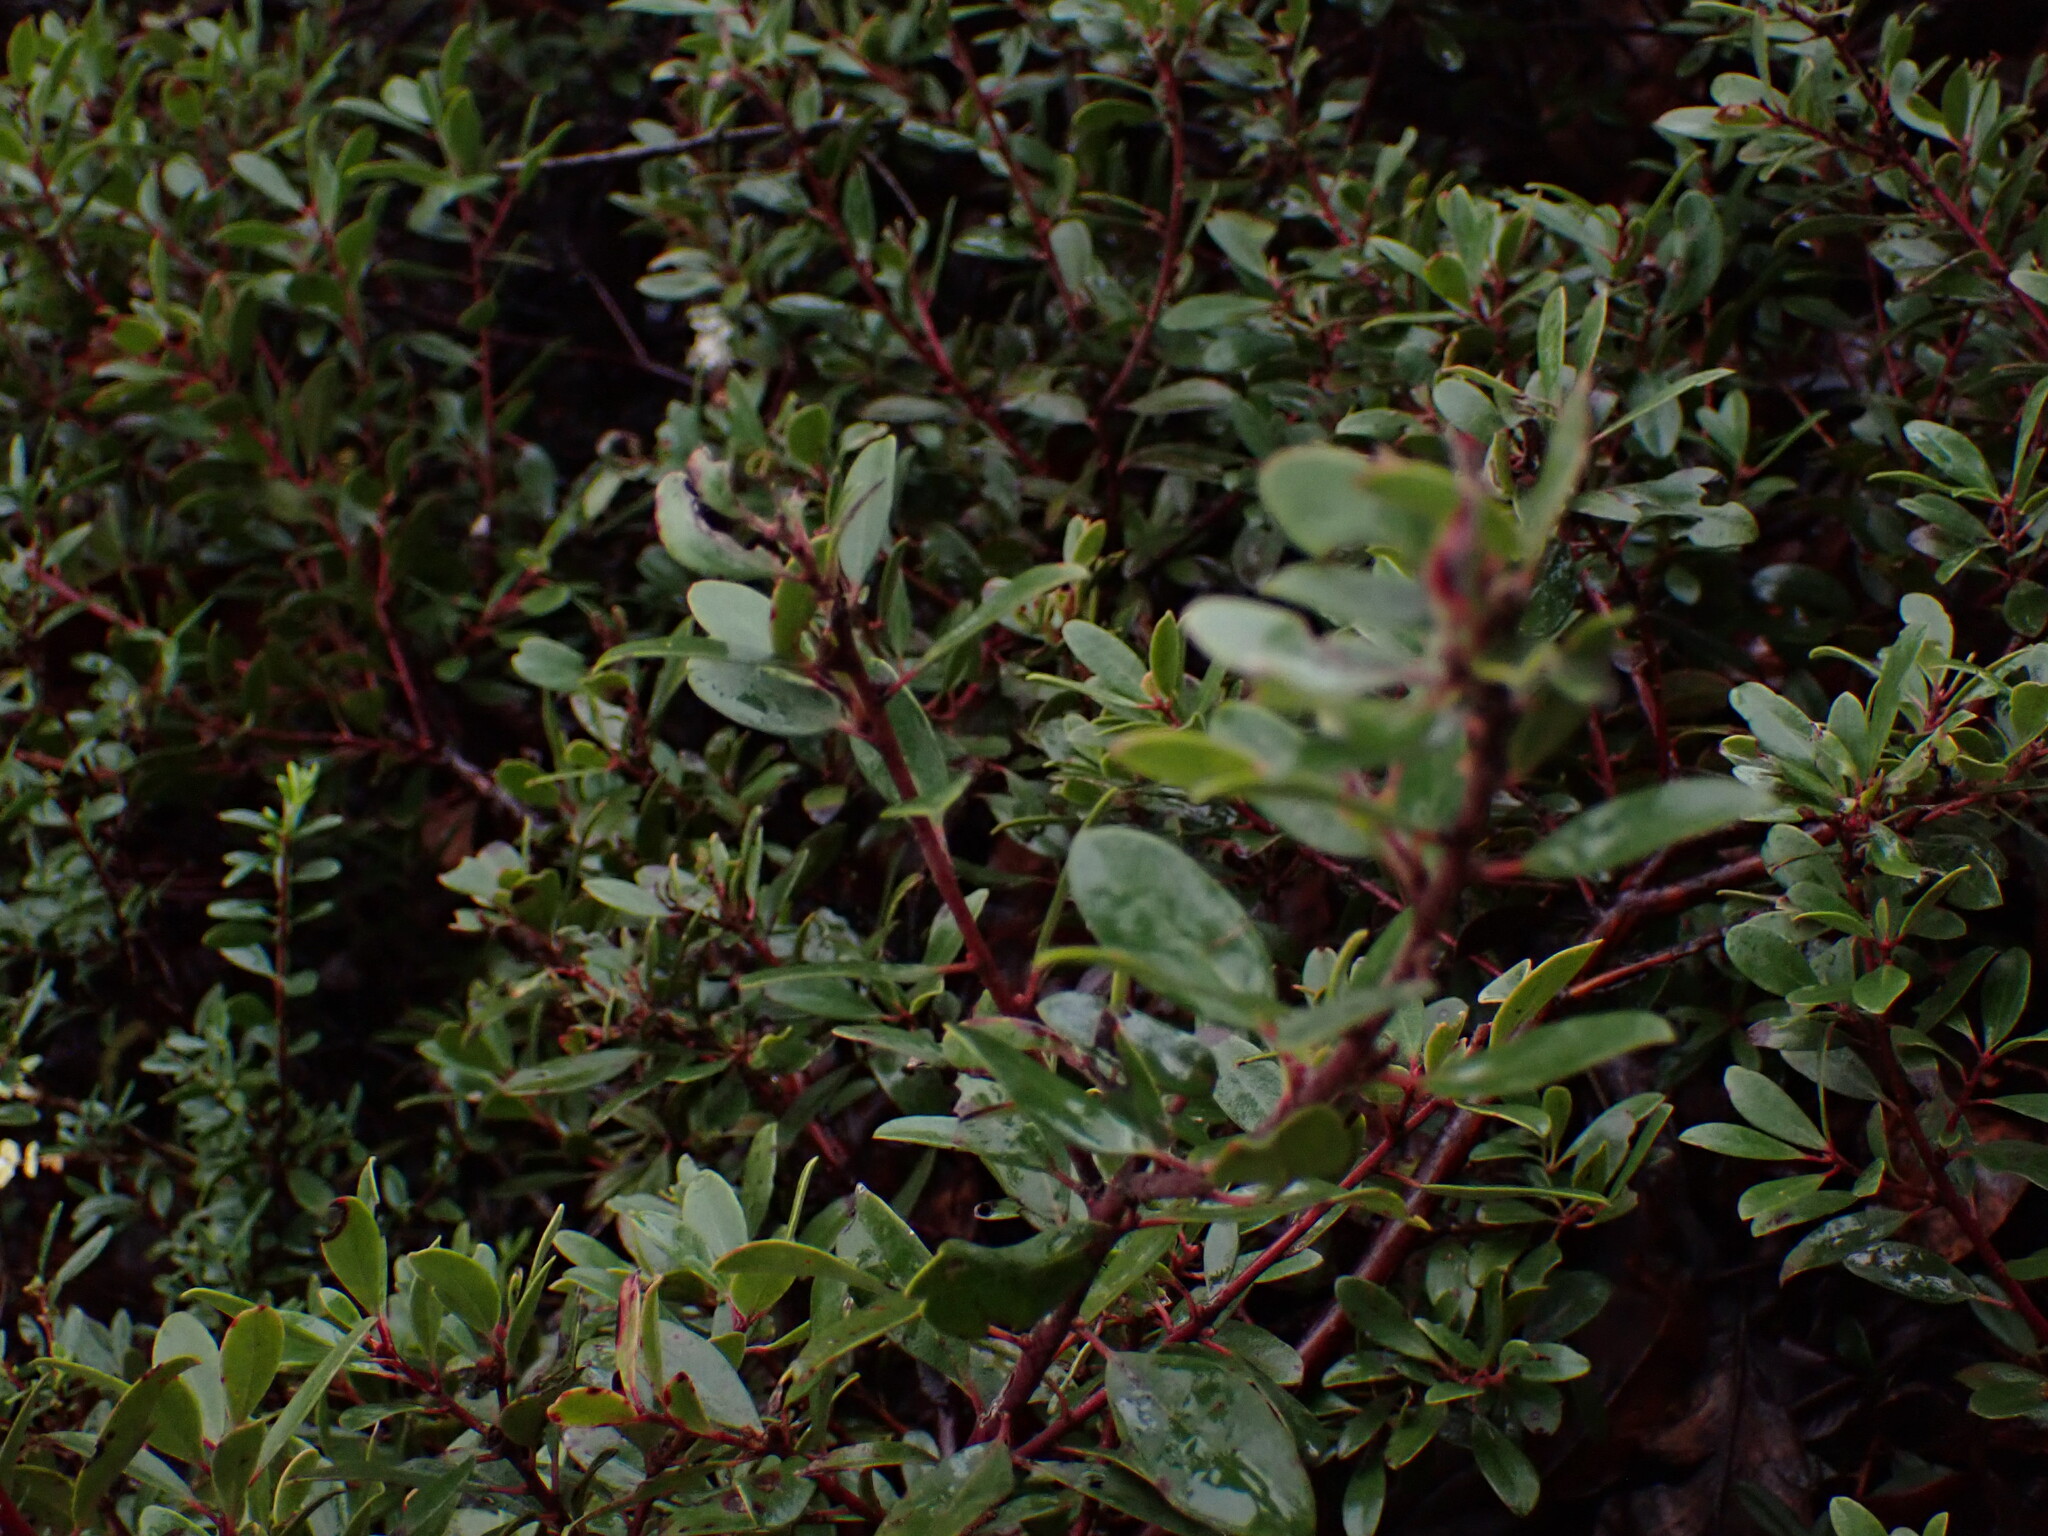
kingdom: Plantae
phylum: Tracheophyta
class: Magnoliopsida
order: Ericales
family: Ericaceae
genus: Arctostaphylos
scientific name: Arctostaphylos media
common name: Hybrid manzanita
